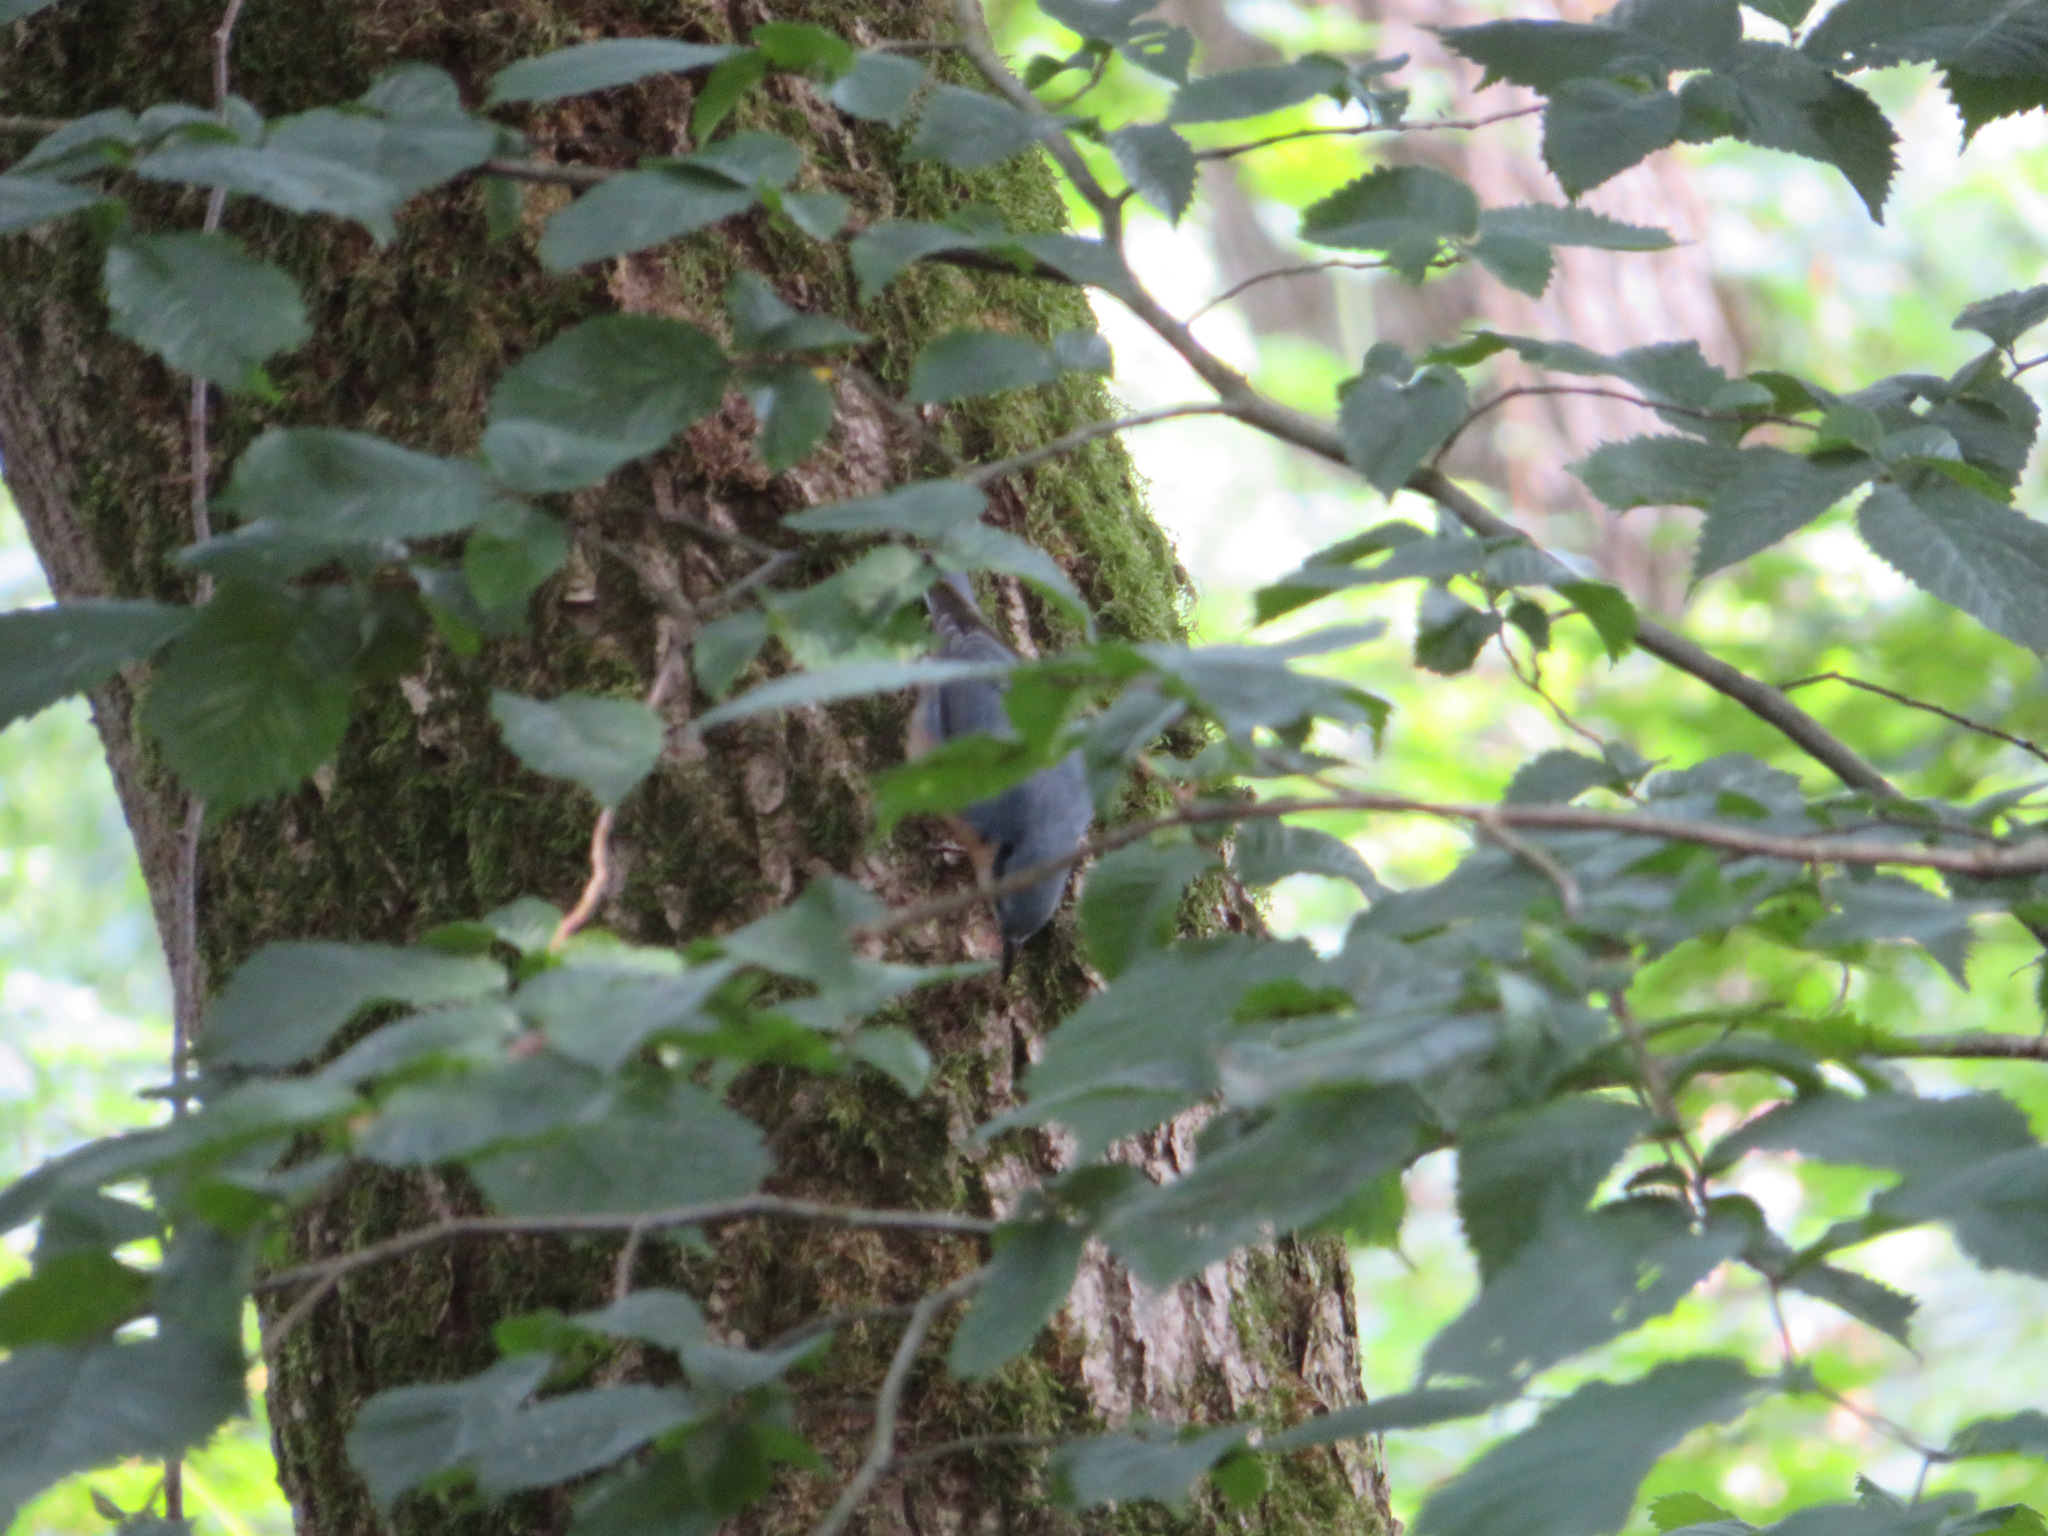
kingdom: Animalia
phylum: Chordata
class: Aves
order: Passeriformes
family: Sittidae
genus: Sitta
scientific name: Sitta europaea
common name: Eurasian nuthatch
